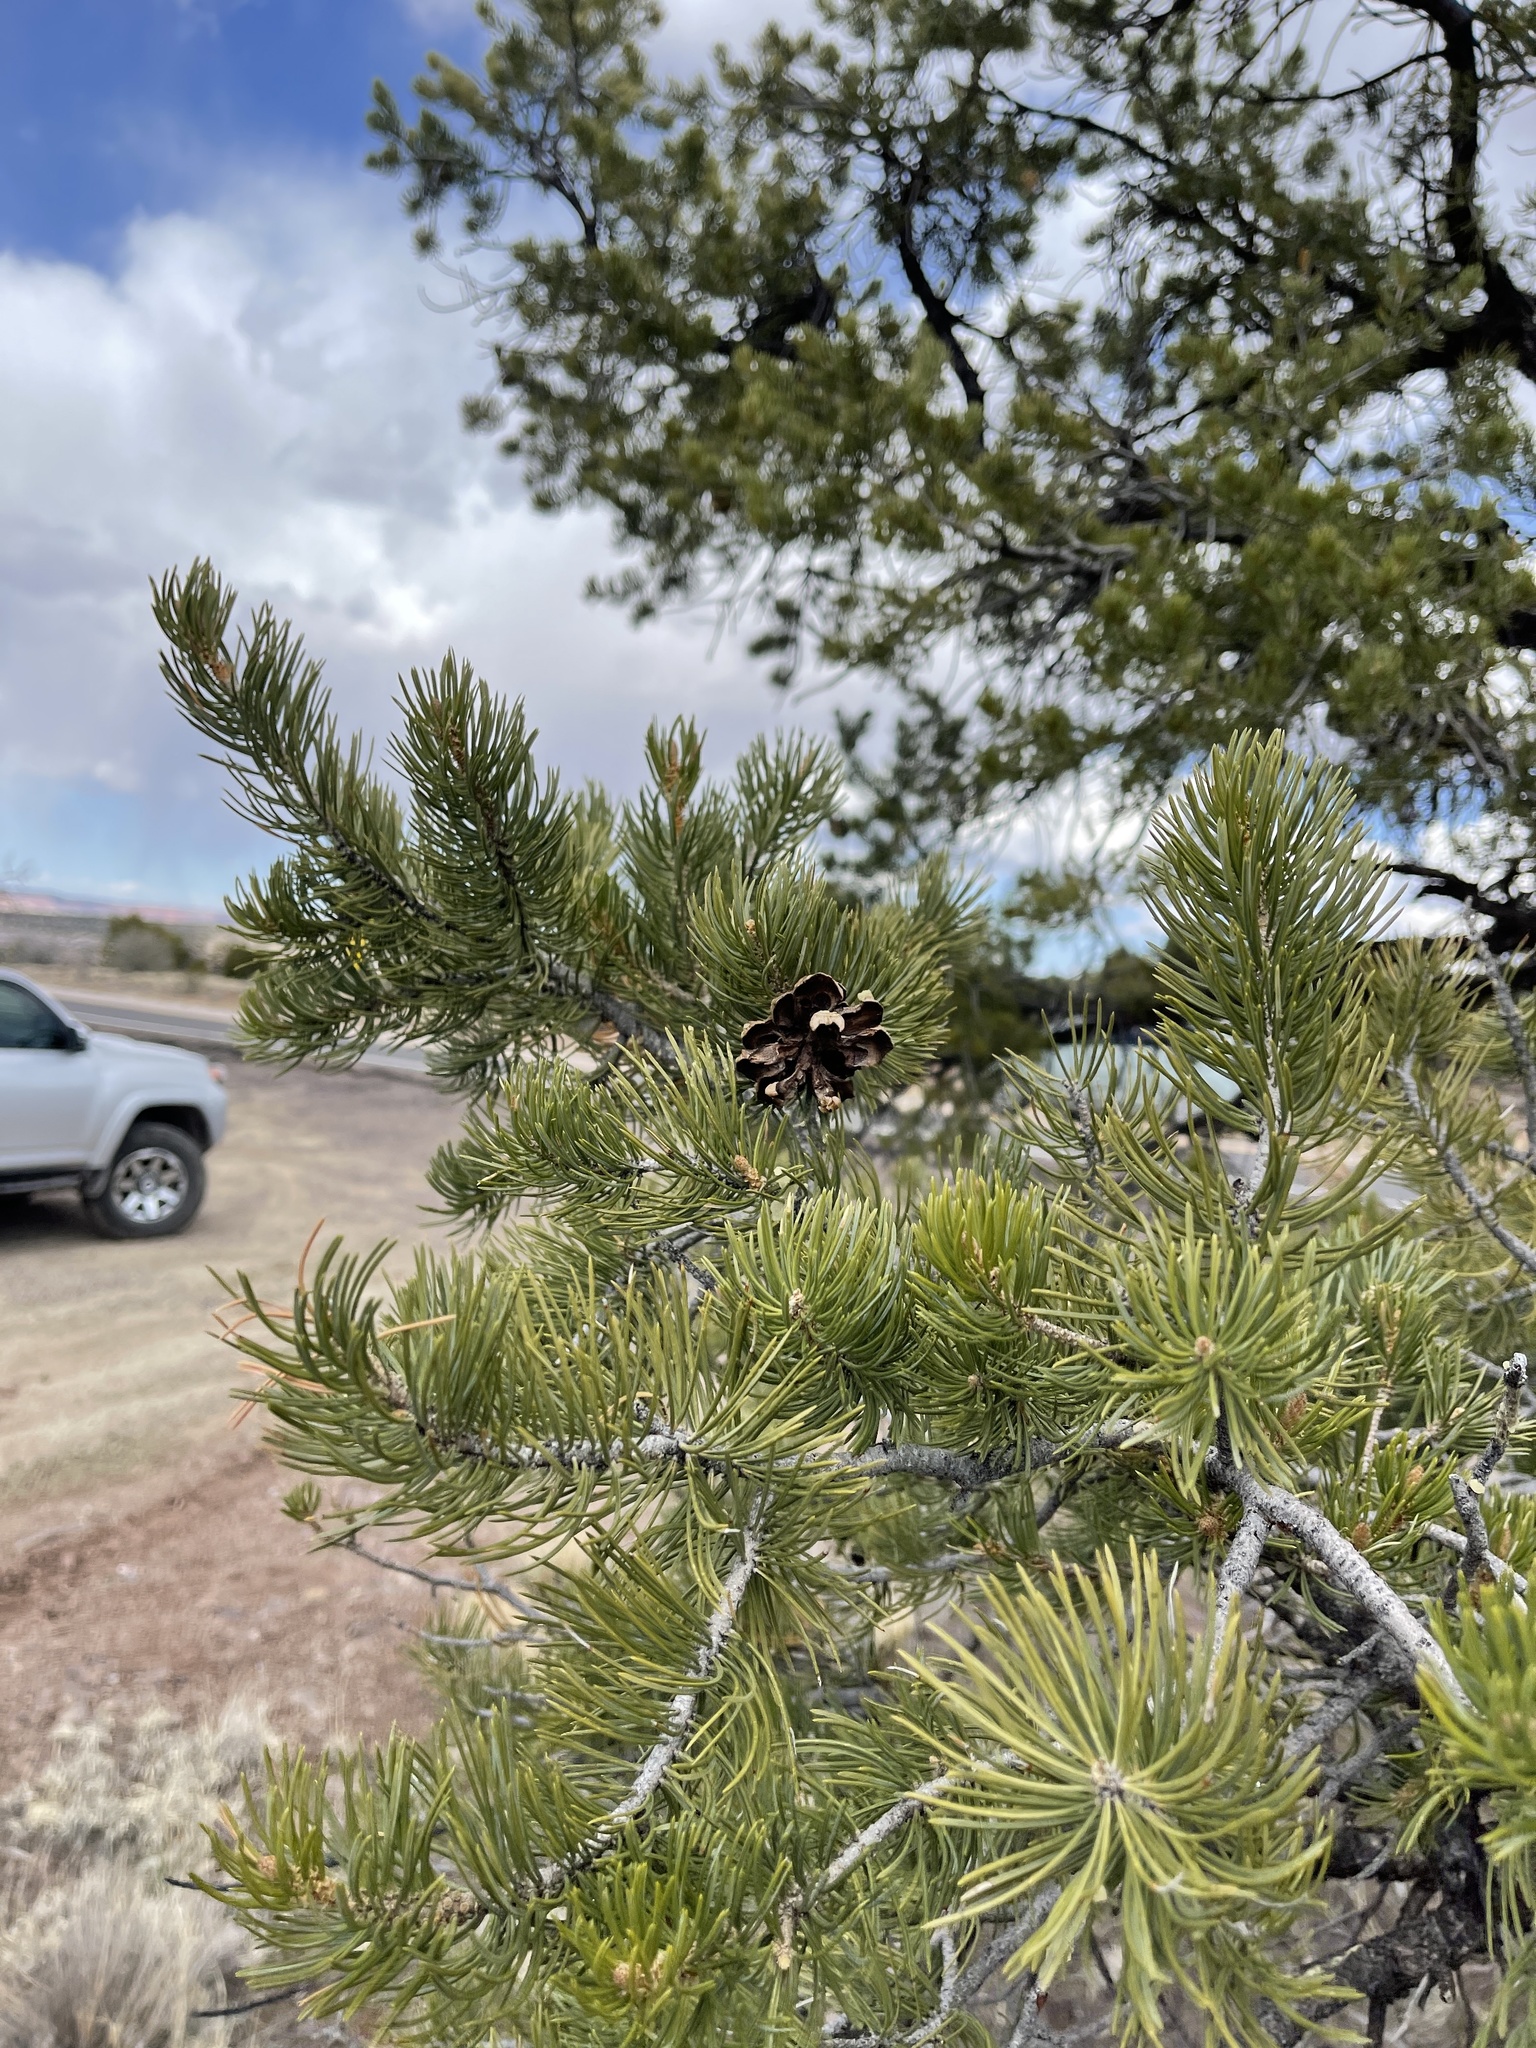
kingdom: Plantae
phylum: Tracheophyta
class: Pinopsida
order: Pinales
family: Pinaceae
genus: Pinus
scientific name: Pinus edulis
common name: Colorado pinyon
